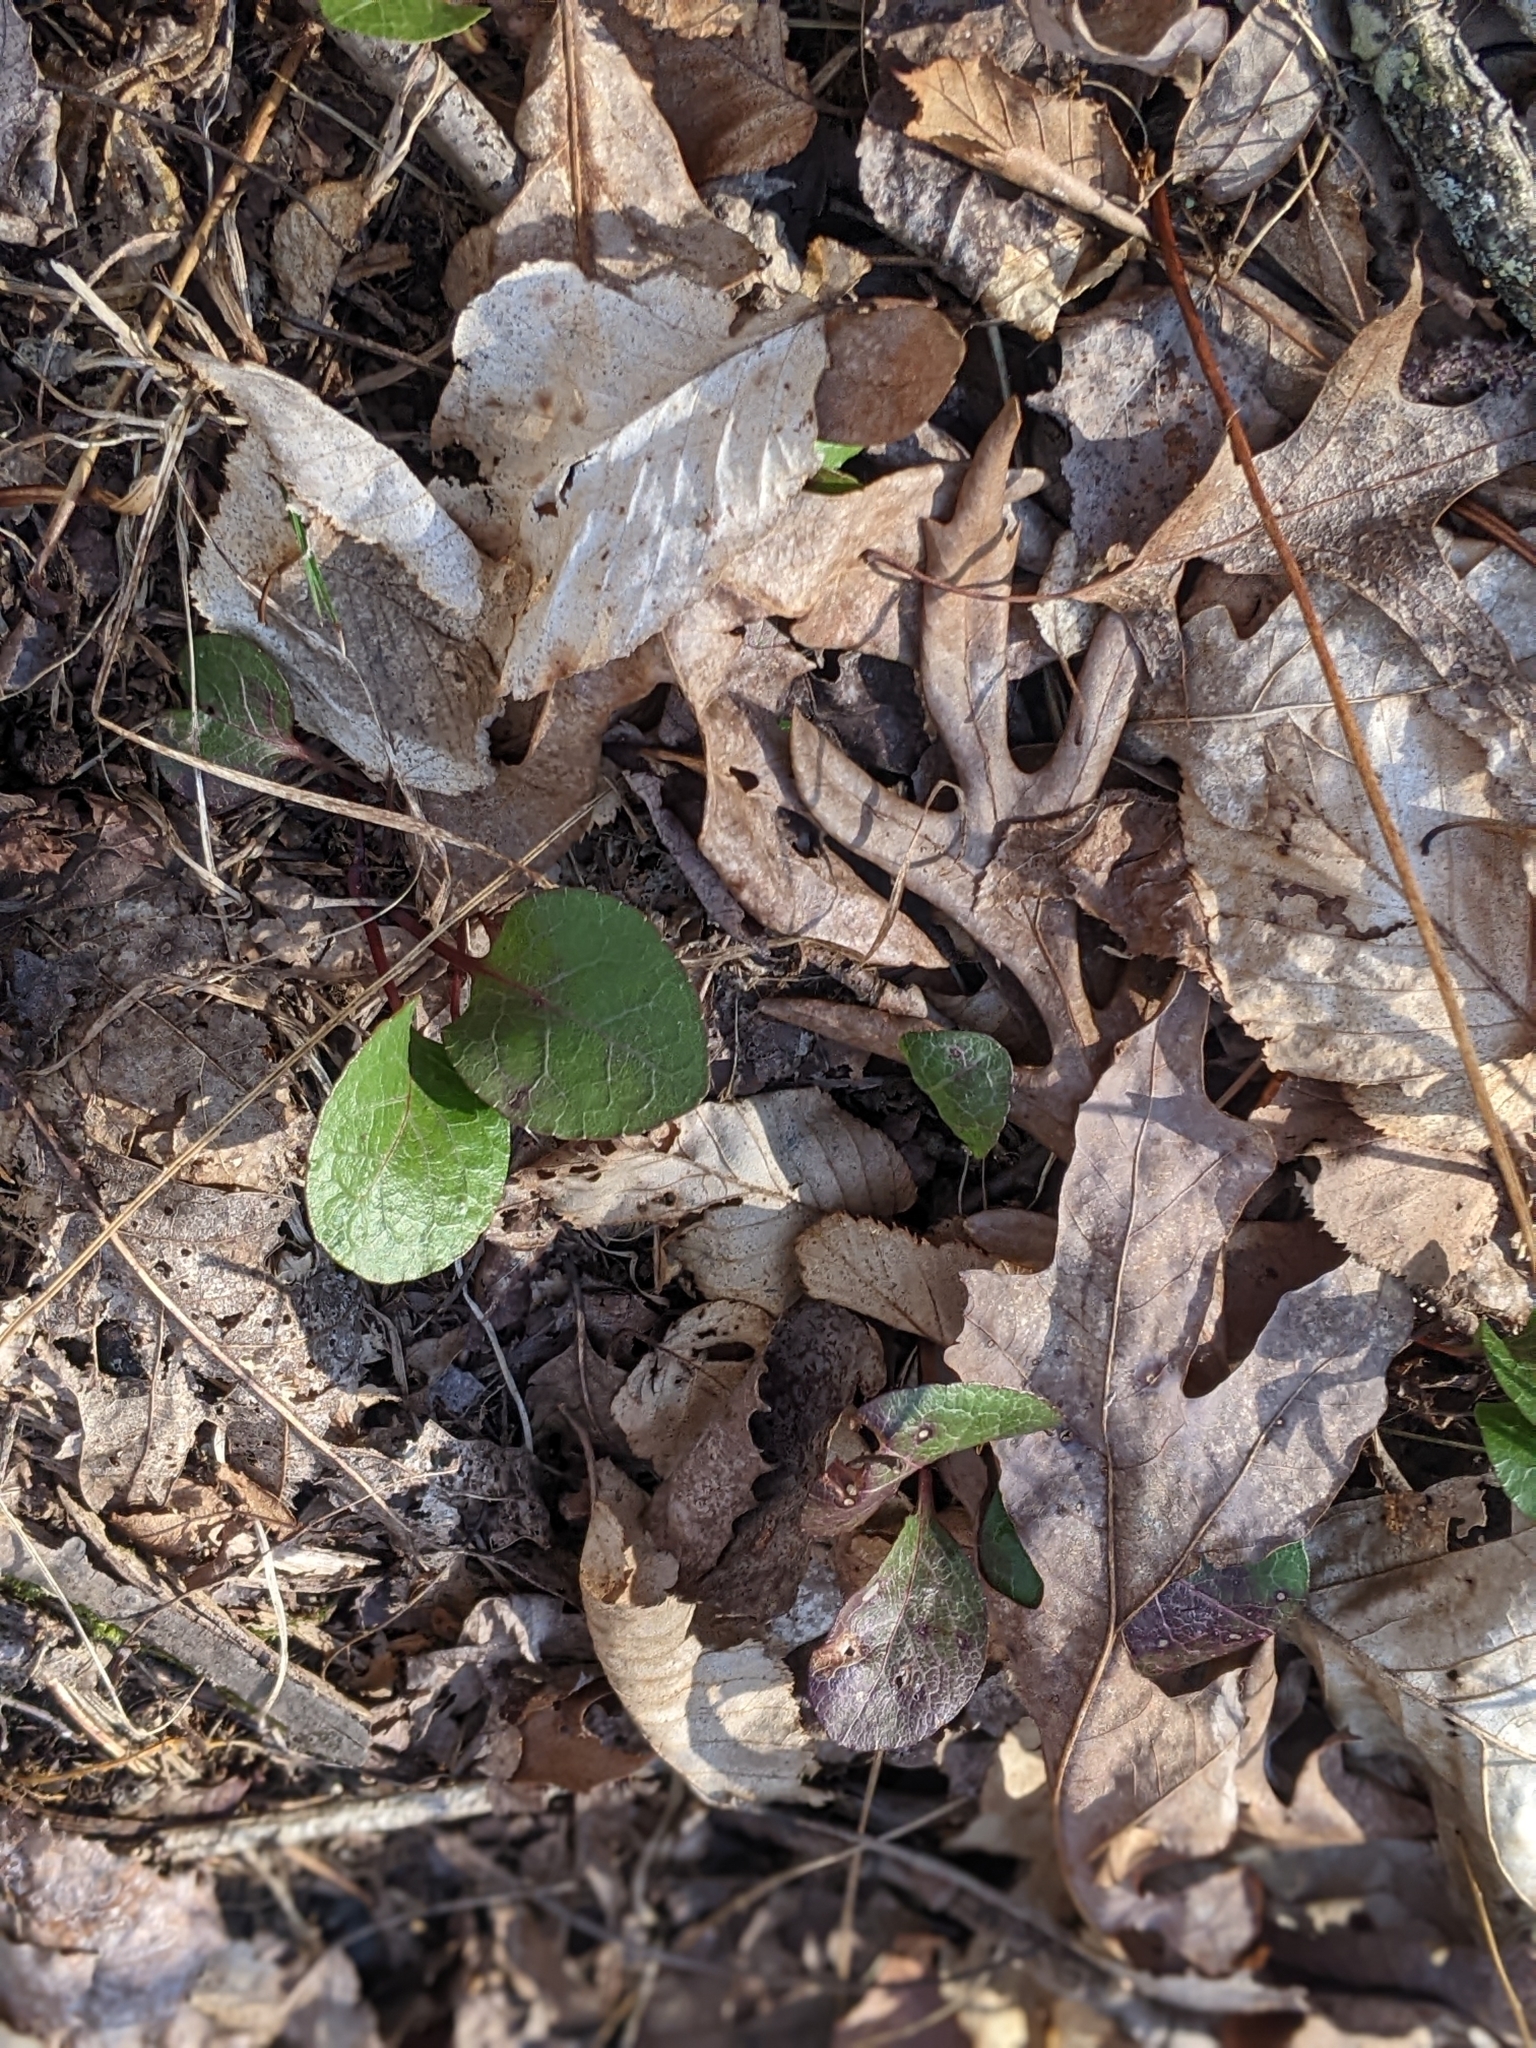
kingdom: Plantae
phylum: Tracheophyta
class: Magnoliopsida
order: Ericales
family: Ericaceae
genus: Pyrola
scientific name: Pyrola americana
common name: American wintergreen
